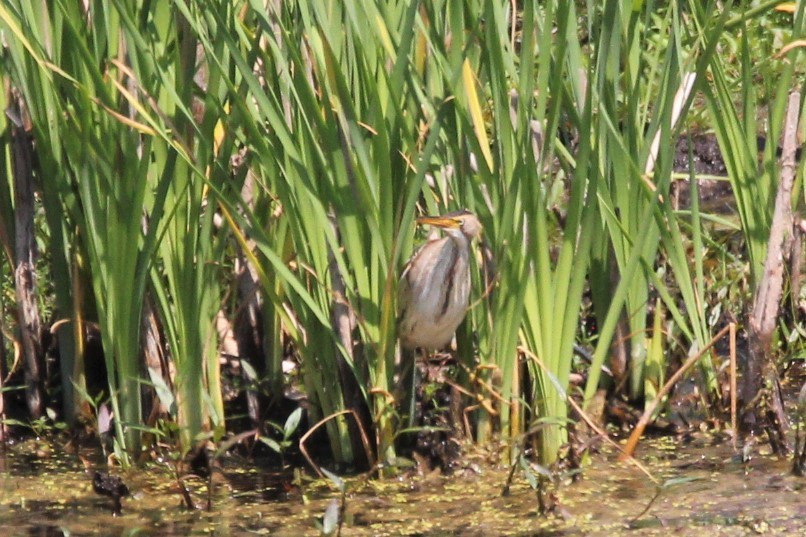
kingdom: Animalia
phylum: Chordata
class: Aves
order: Pelecaniformes
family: Ardeidae
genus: Ixobrychus
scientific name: Ixobrychus exilis
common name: Least bittern
